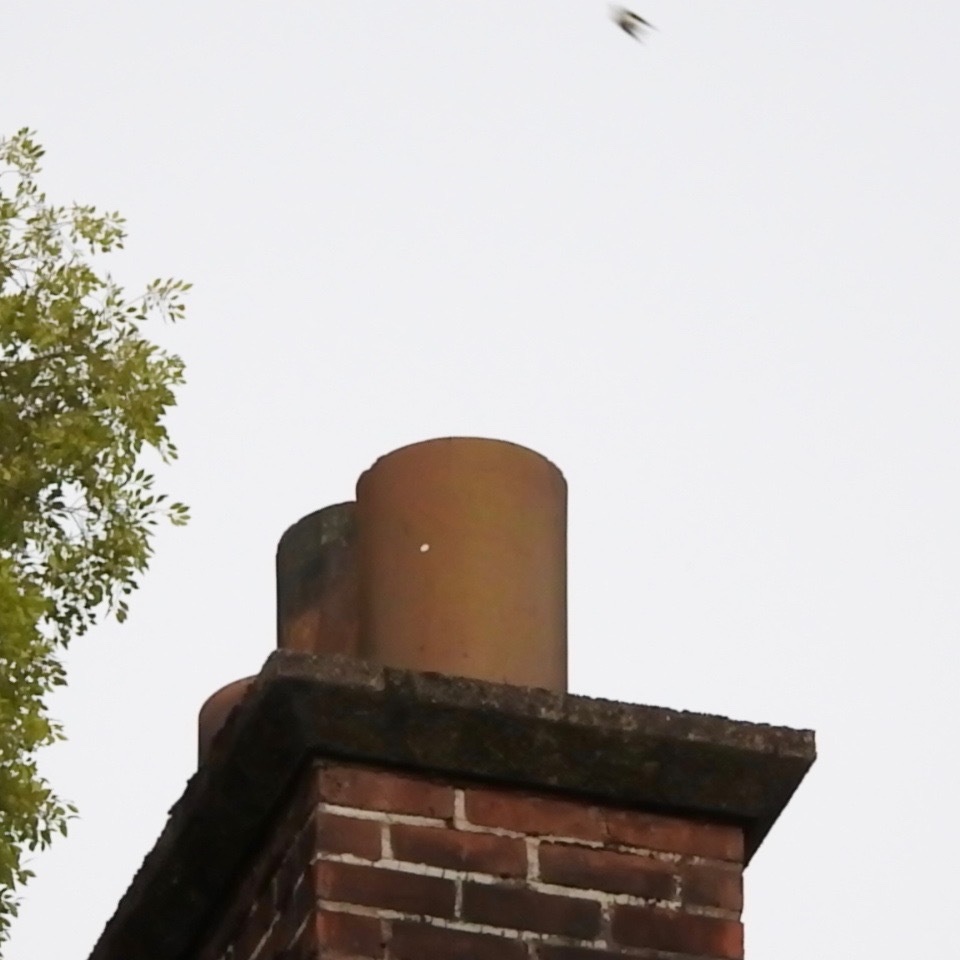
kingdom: Animalia
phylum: Chordata
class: Aves
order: Apodiformes
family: Apodidae
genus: Chaetura
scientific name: Chaetura vauxi
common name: Vaux's swift
